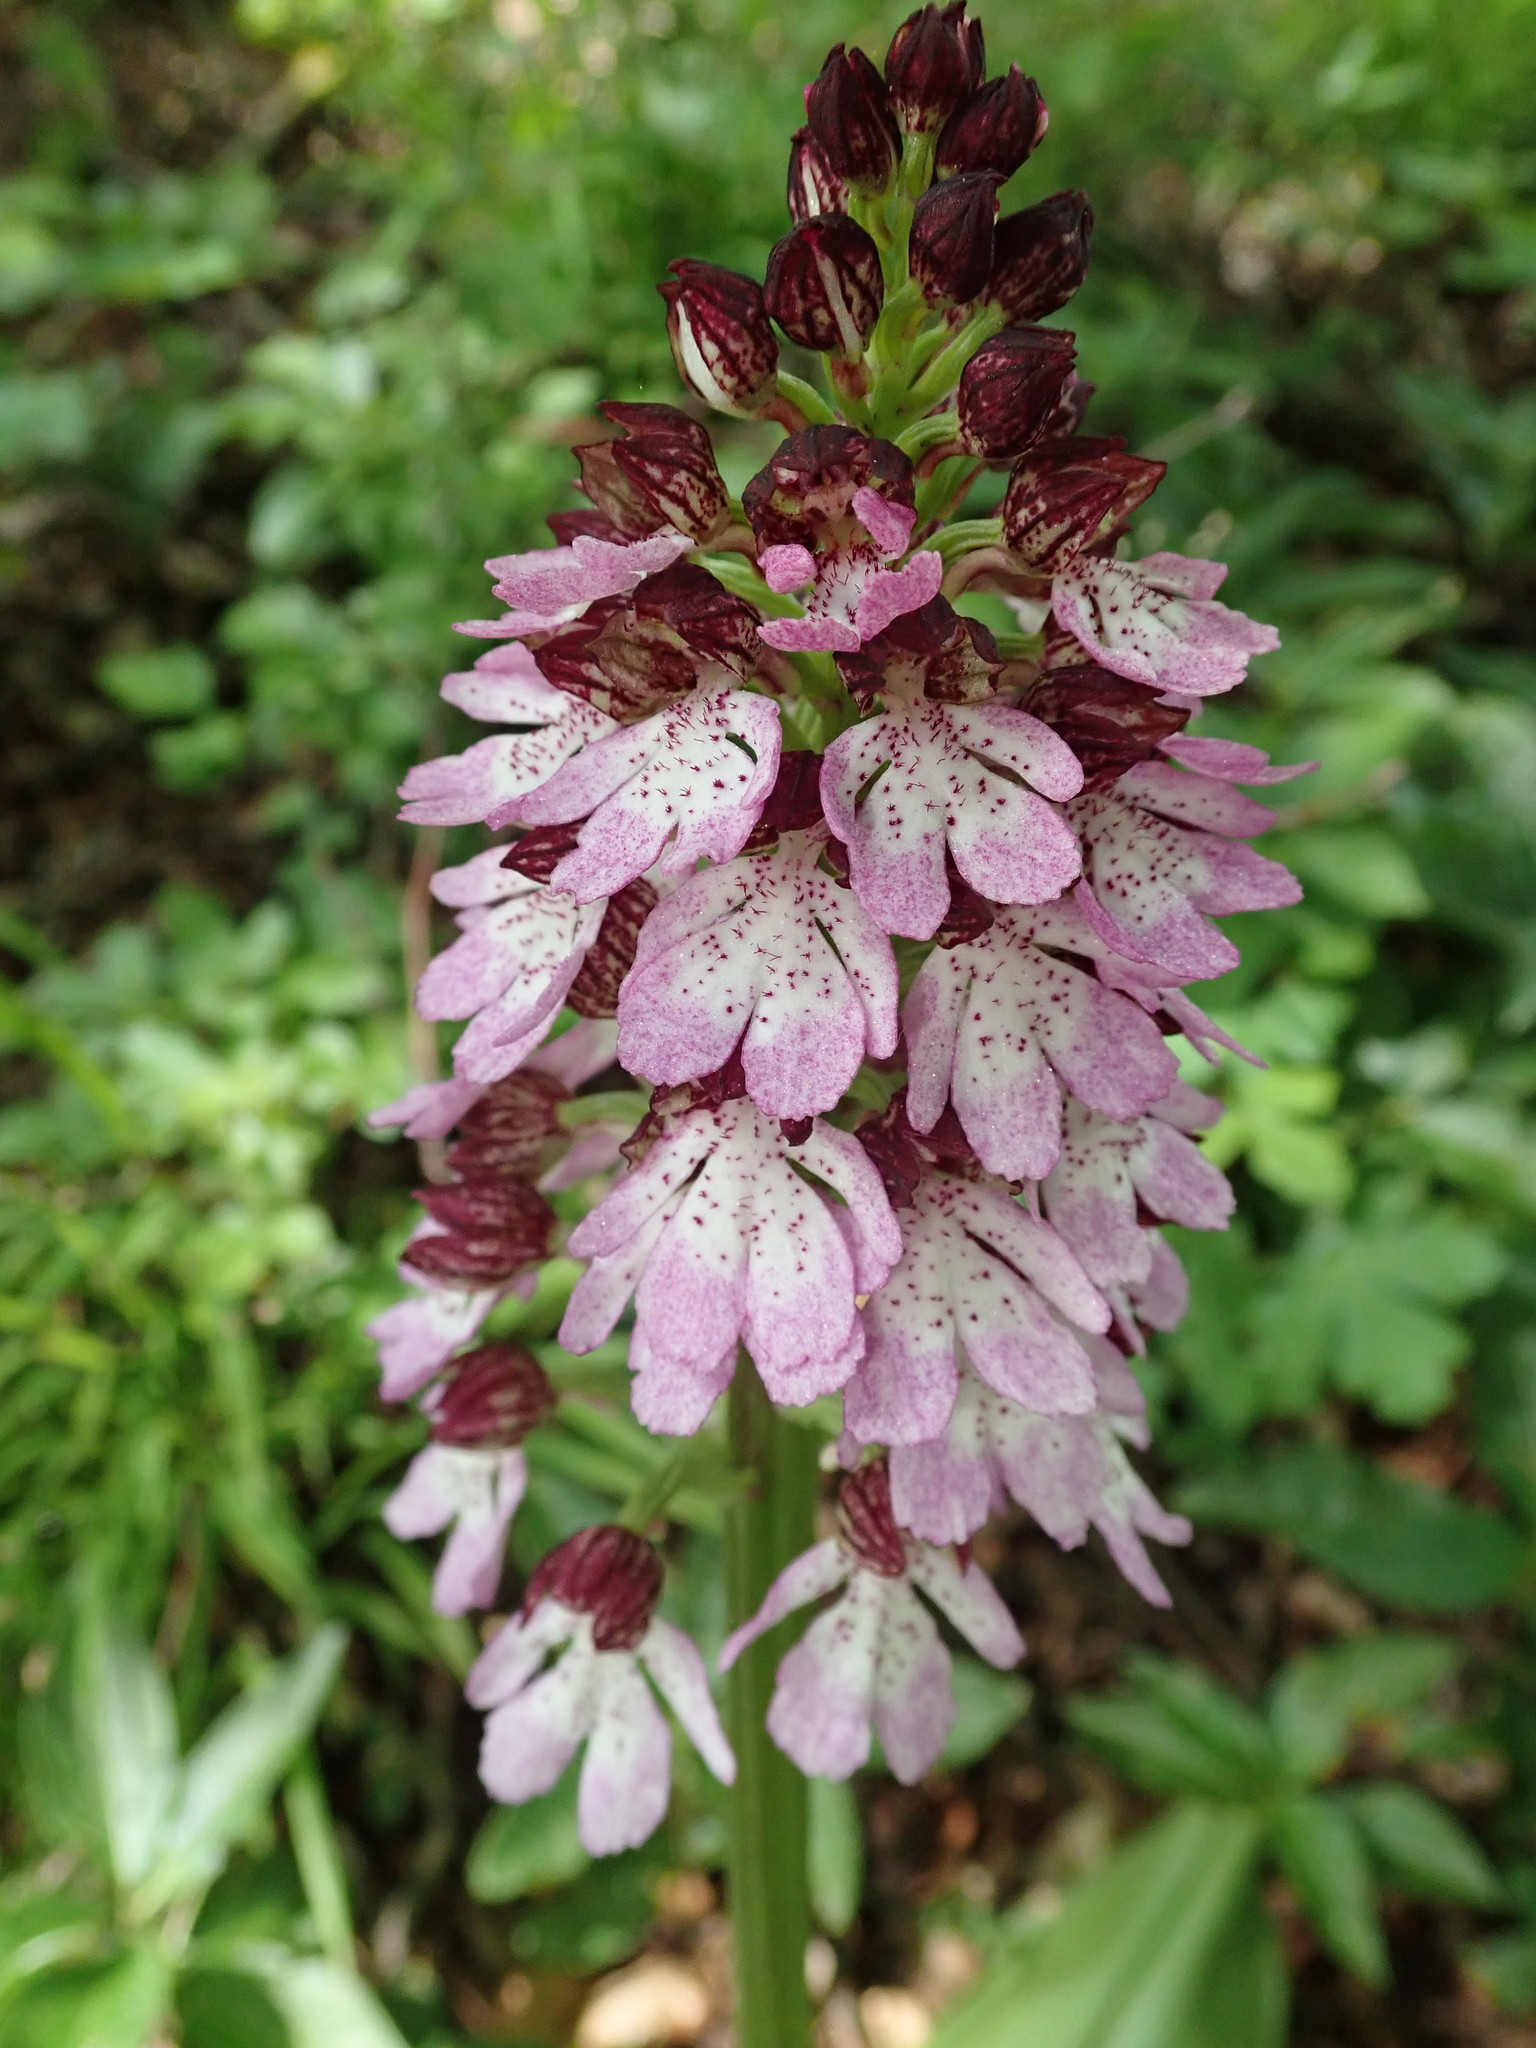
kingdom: Plantae
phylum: Tracheophyta
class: Liliopsida
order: Asparagales
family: Orchidaceae
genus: Orchis
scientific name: Orchis purpurea
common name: Lady orchid
